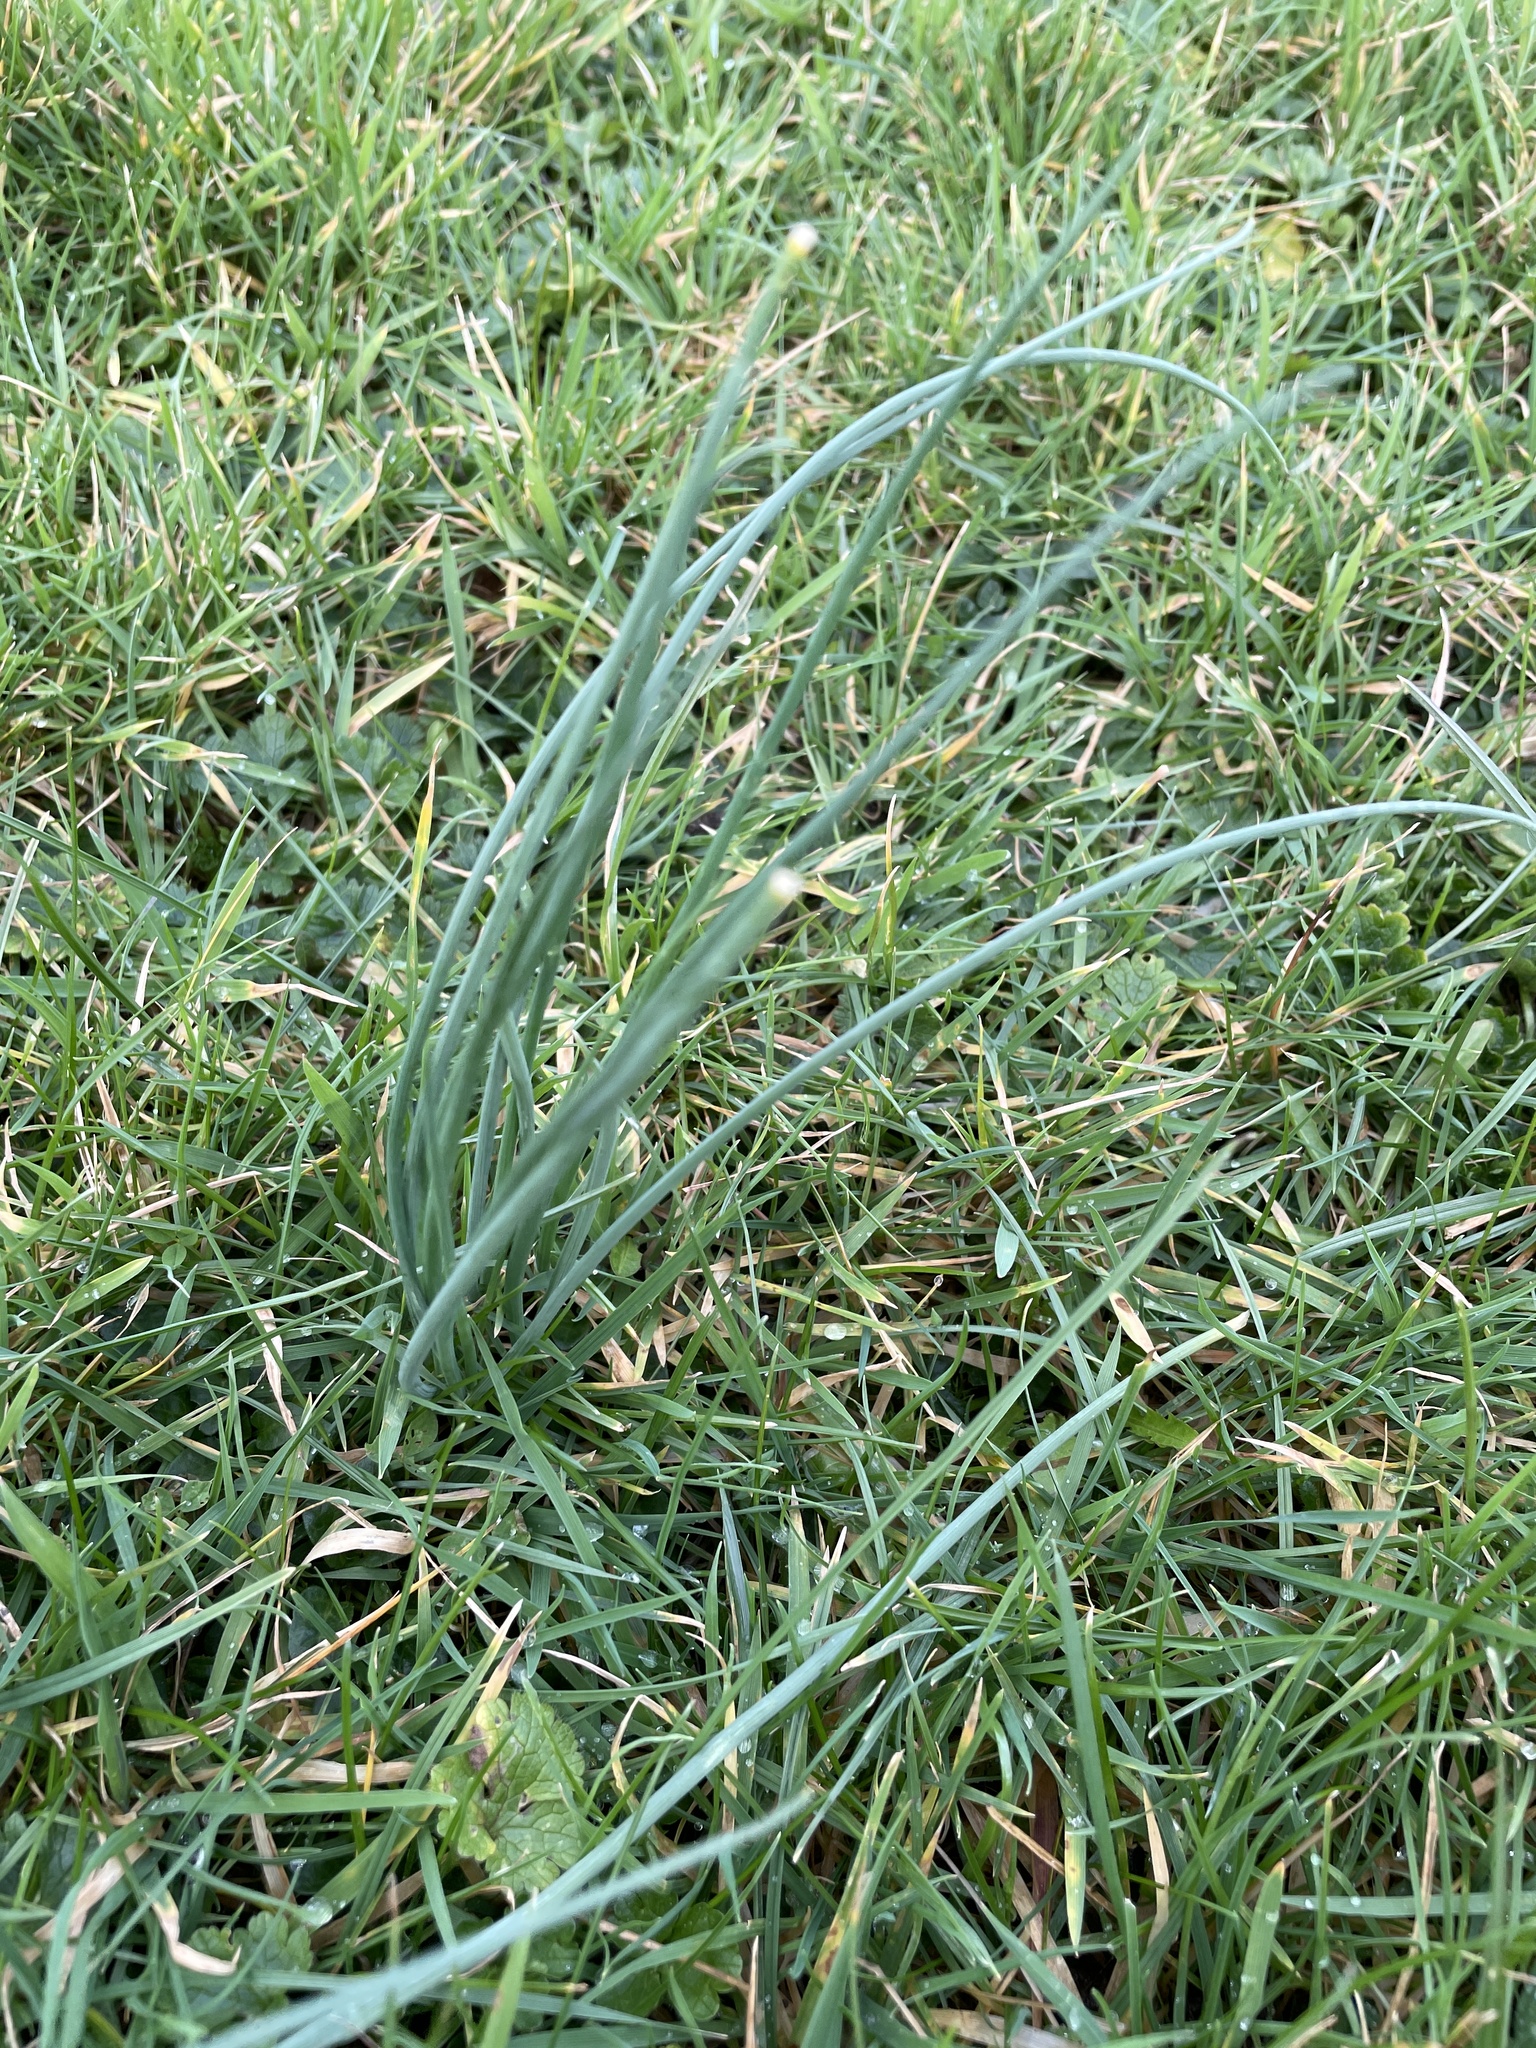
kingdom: Plantae
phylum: Tracheophyta
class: Liliopsida
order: Asparagales
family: Amaryllidaceae
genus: Allium
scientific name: Allium vineale
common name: Crow garlic
